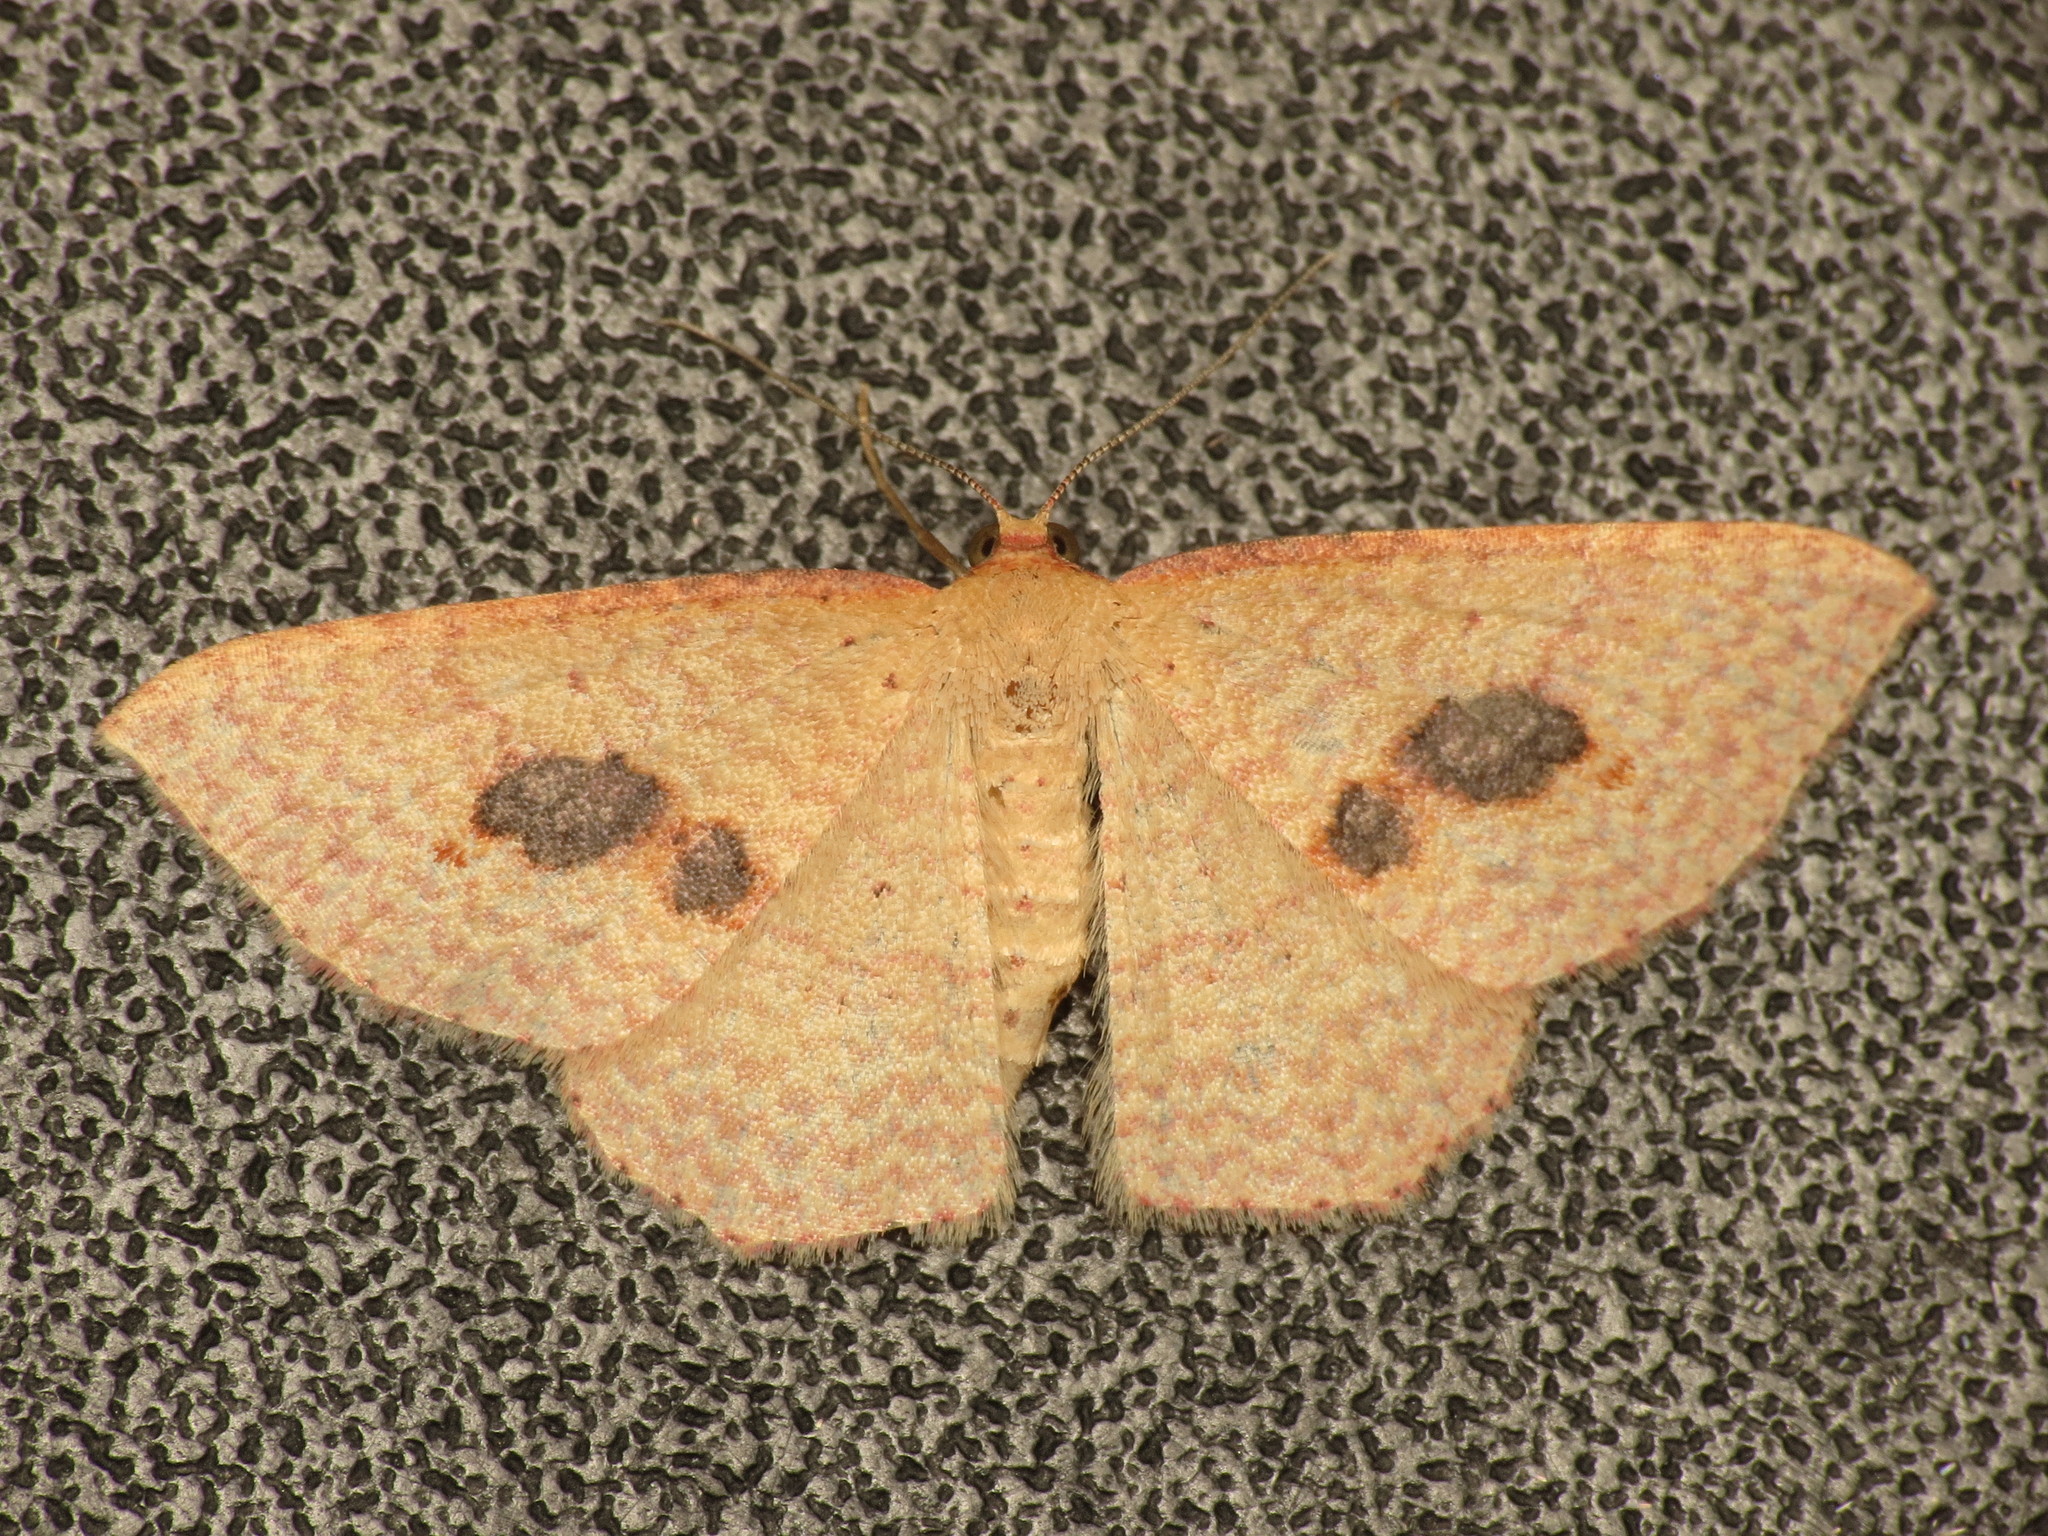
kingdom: Animalia
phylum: Arthropoda
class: Insecta
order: Lepidoptera
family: Geometridae
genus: Epicyme
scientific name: Epicyme rubropunctaria
